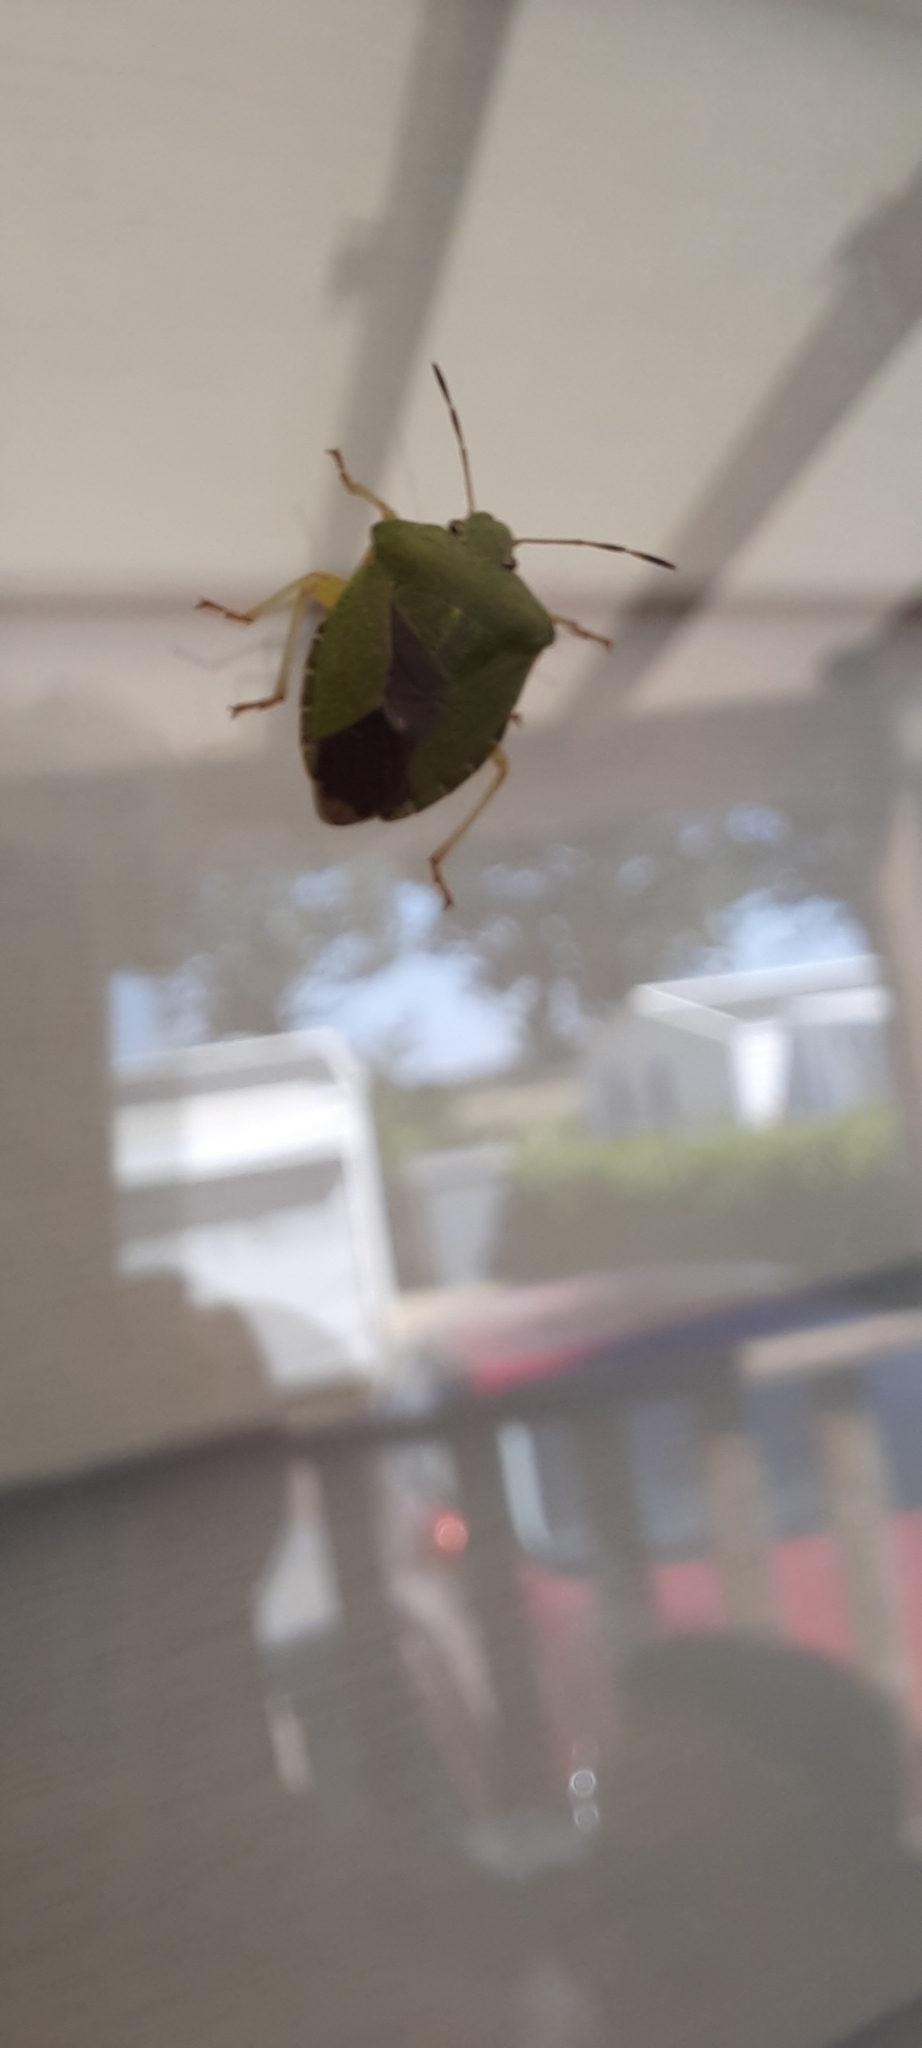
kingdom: Animalia
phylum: Arthropoda
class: Insecta
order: Hemiptera
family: Pentatomidae
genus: Palomena
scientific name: Palomena prasina
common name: Green shieldbug
